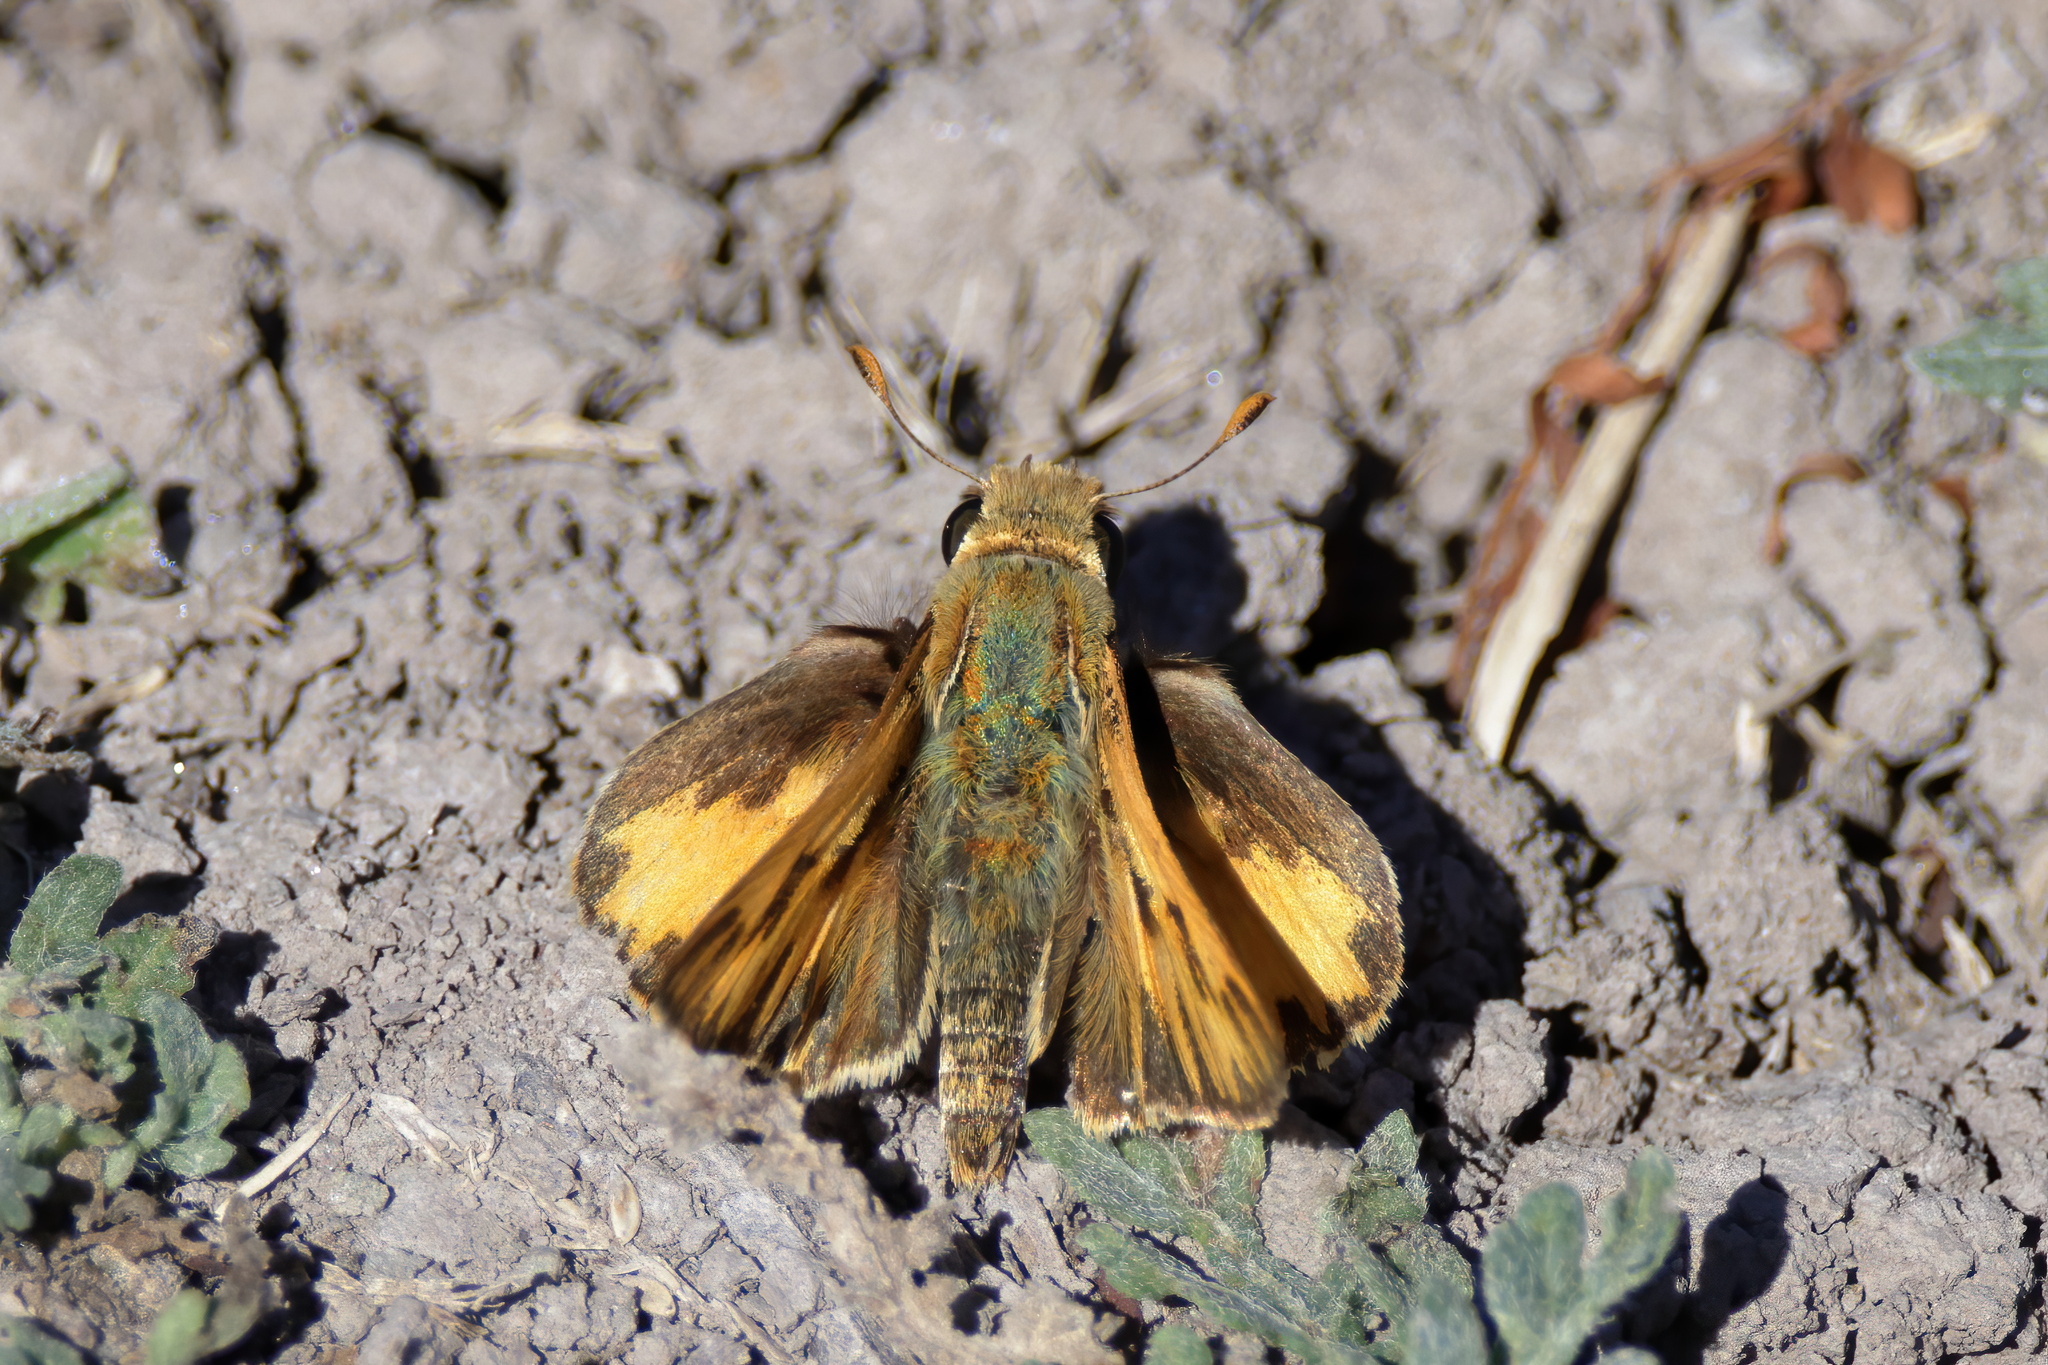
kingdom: Animalia
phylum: Arthropoda
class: Insecta
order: Lepidoptera
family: Hesperiidae
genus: Hylephila
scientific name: Hylephila phyleus
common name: Fiery skipper
